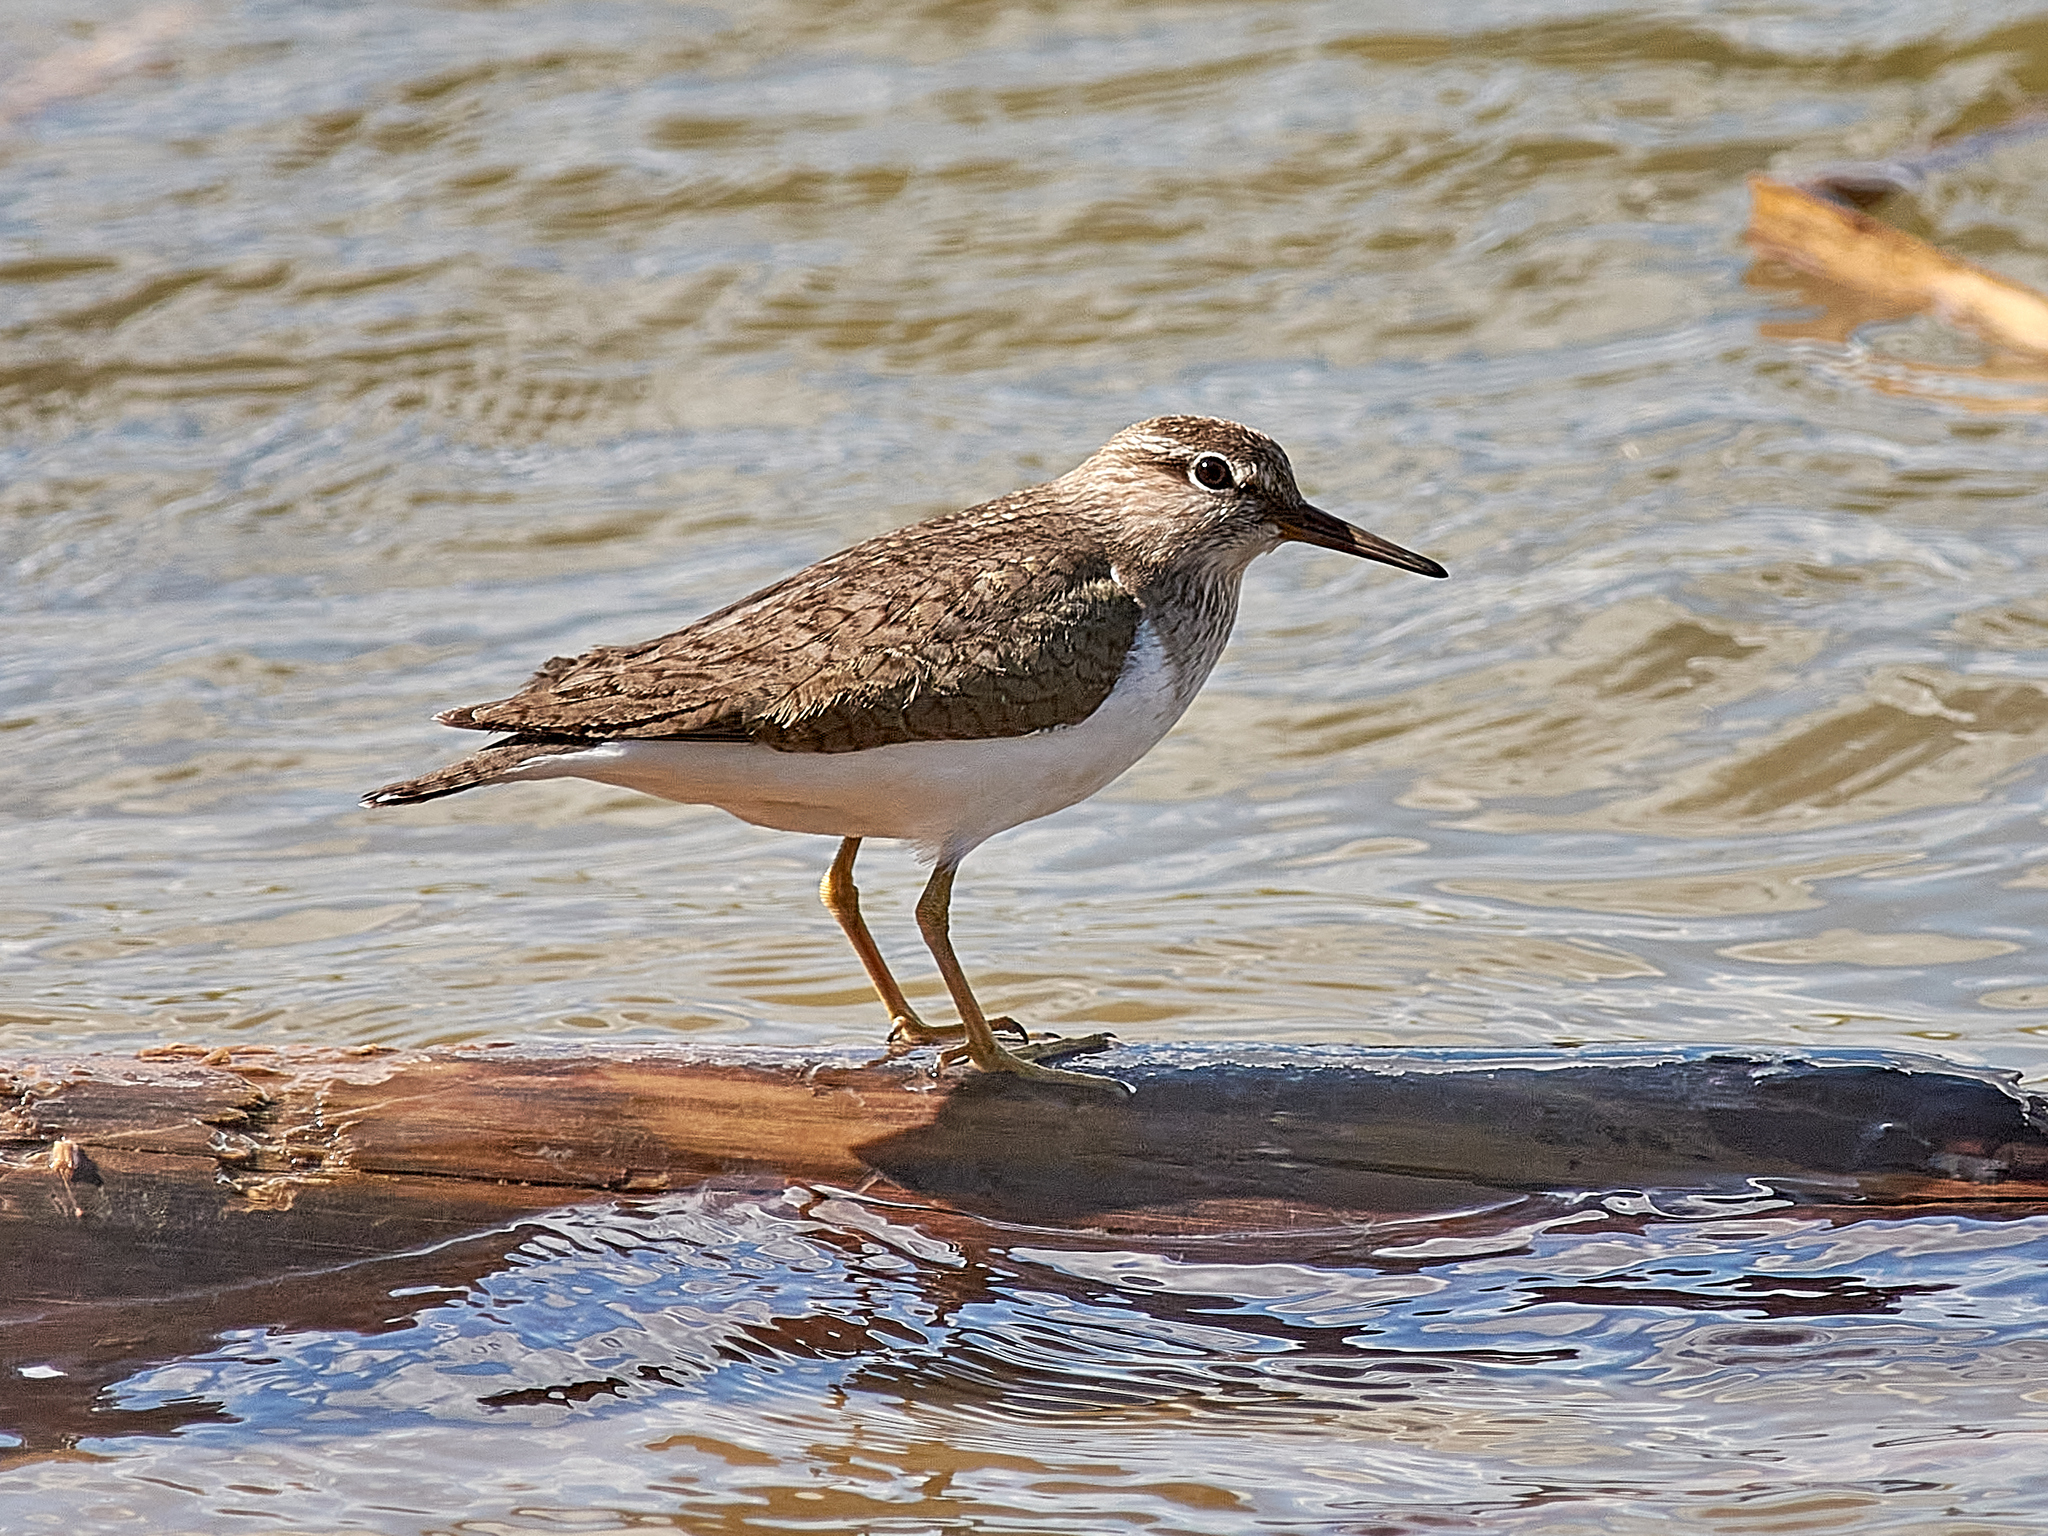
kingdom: Animalia
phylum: Chordata
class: Aves
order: Charadriiformes
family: Scolopacidae
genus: Actitis
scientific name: Actitis hypoleucos
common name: Common sandpiper
